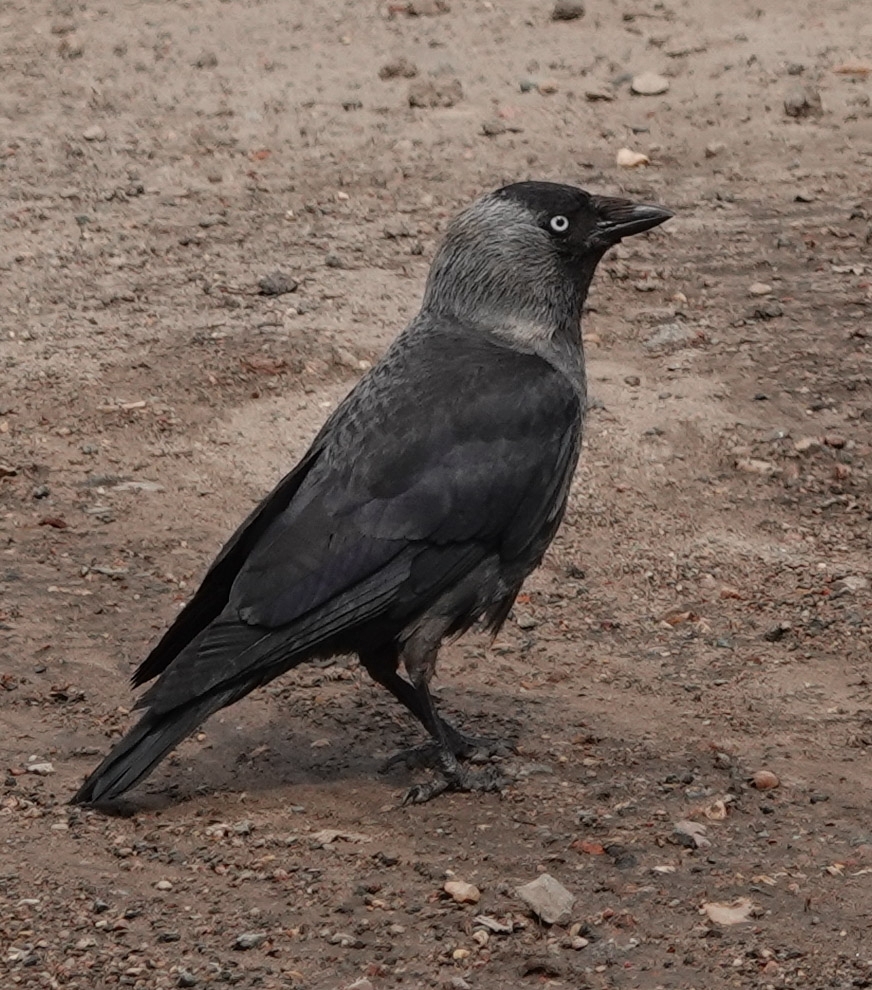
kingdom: Animalia
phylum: Chordata
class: Aves
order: Passeriformes
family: Corvidae
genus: Coloeus
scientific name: Coloeus monedula
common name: Western jackdaw
